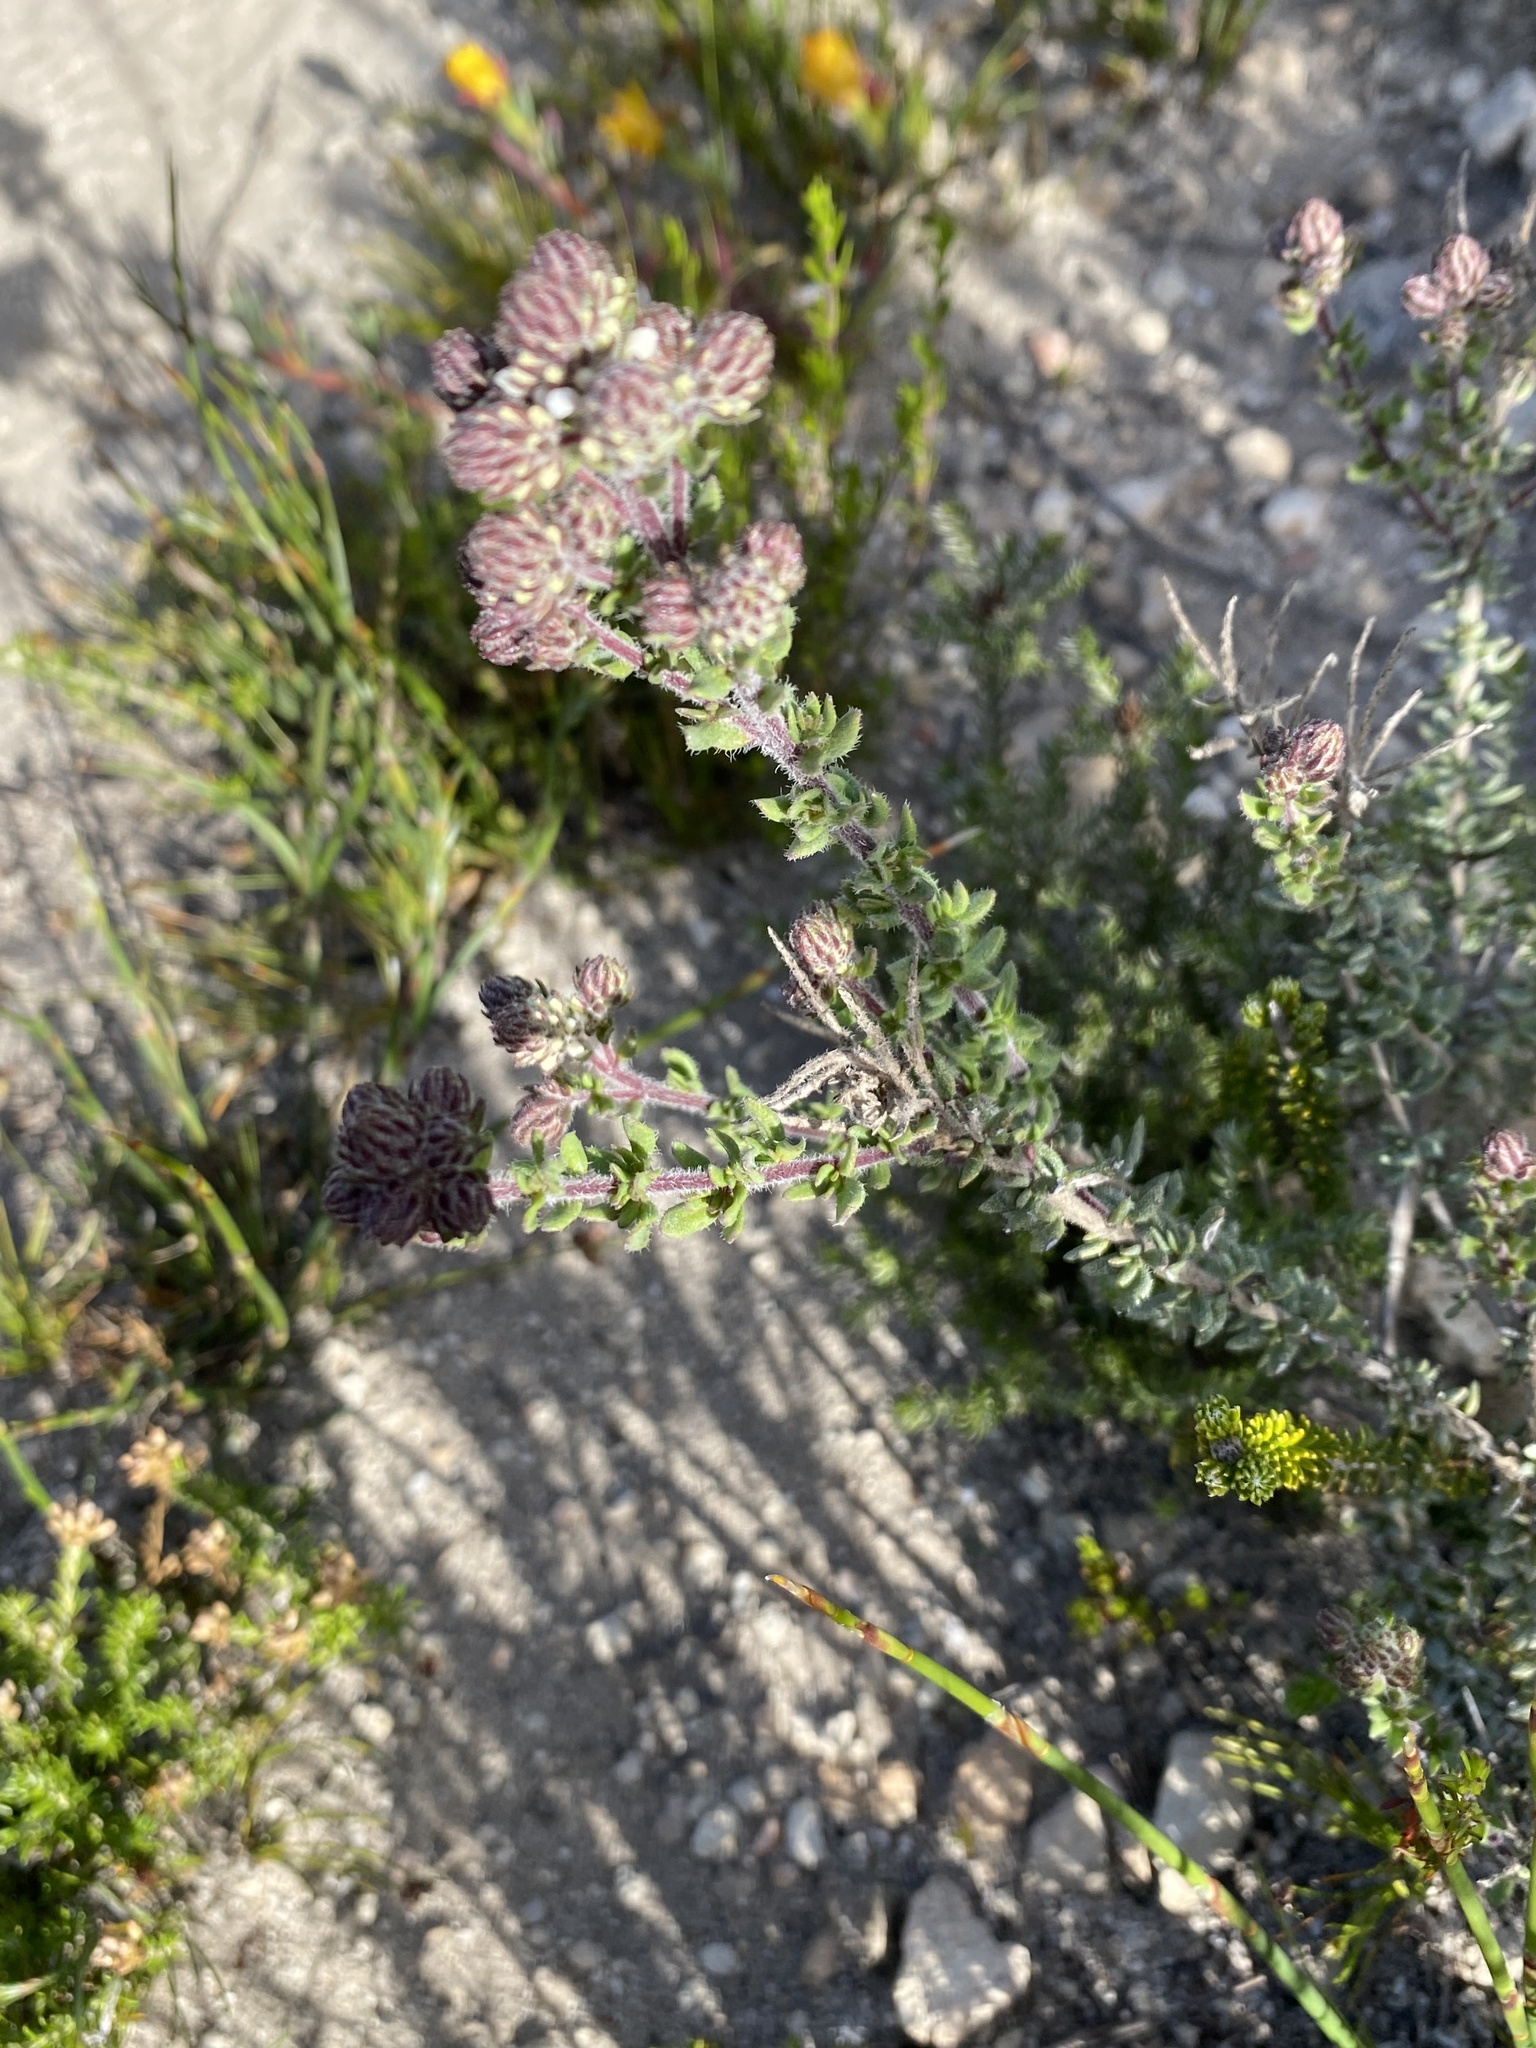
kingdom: Plantae
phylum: Tracheophyta
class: Magnoliopsida
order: Lamiales
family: Scrophulariaceae
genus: Selago
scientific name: Selago setulosa
